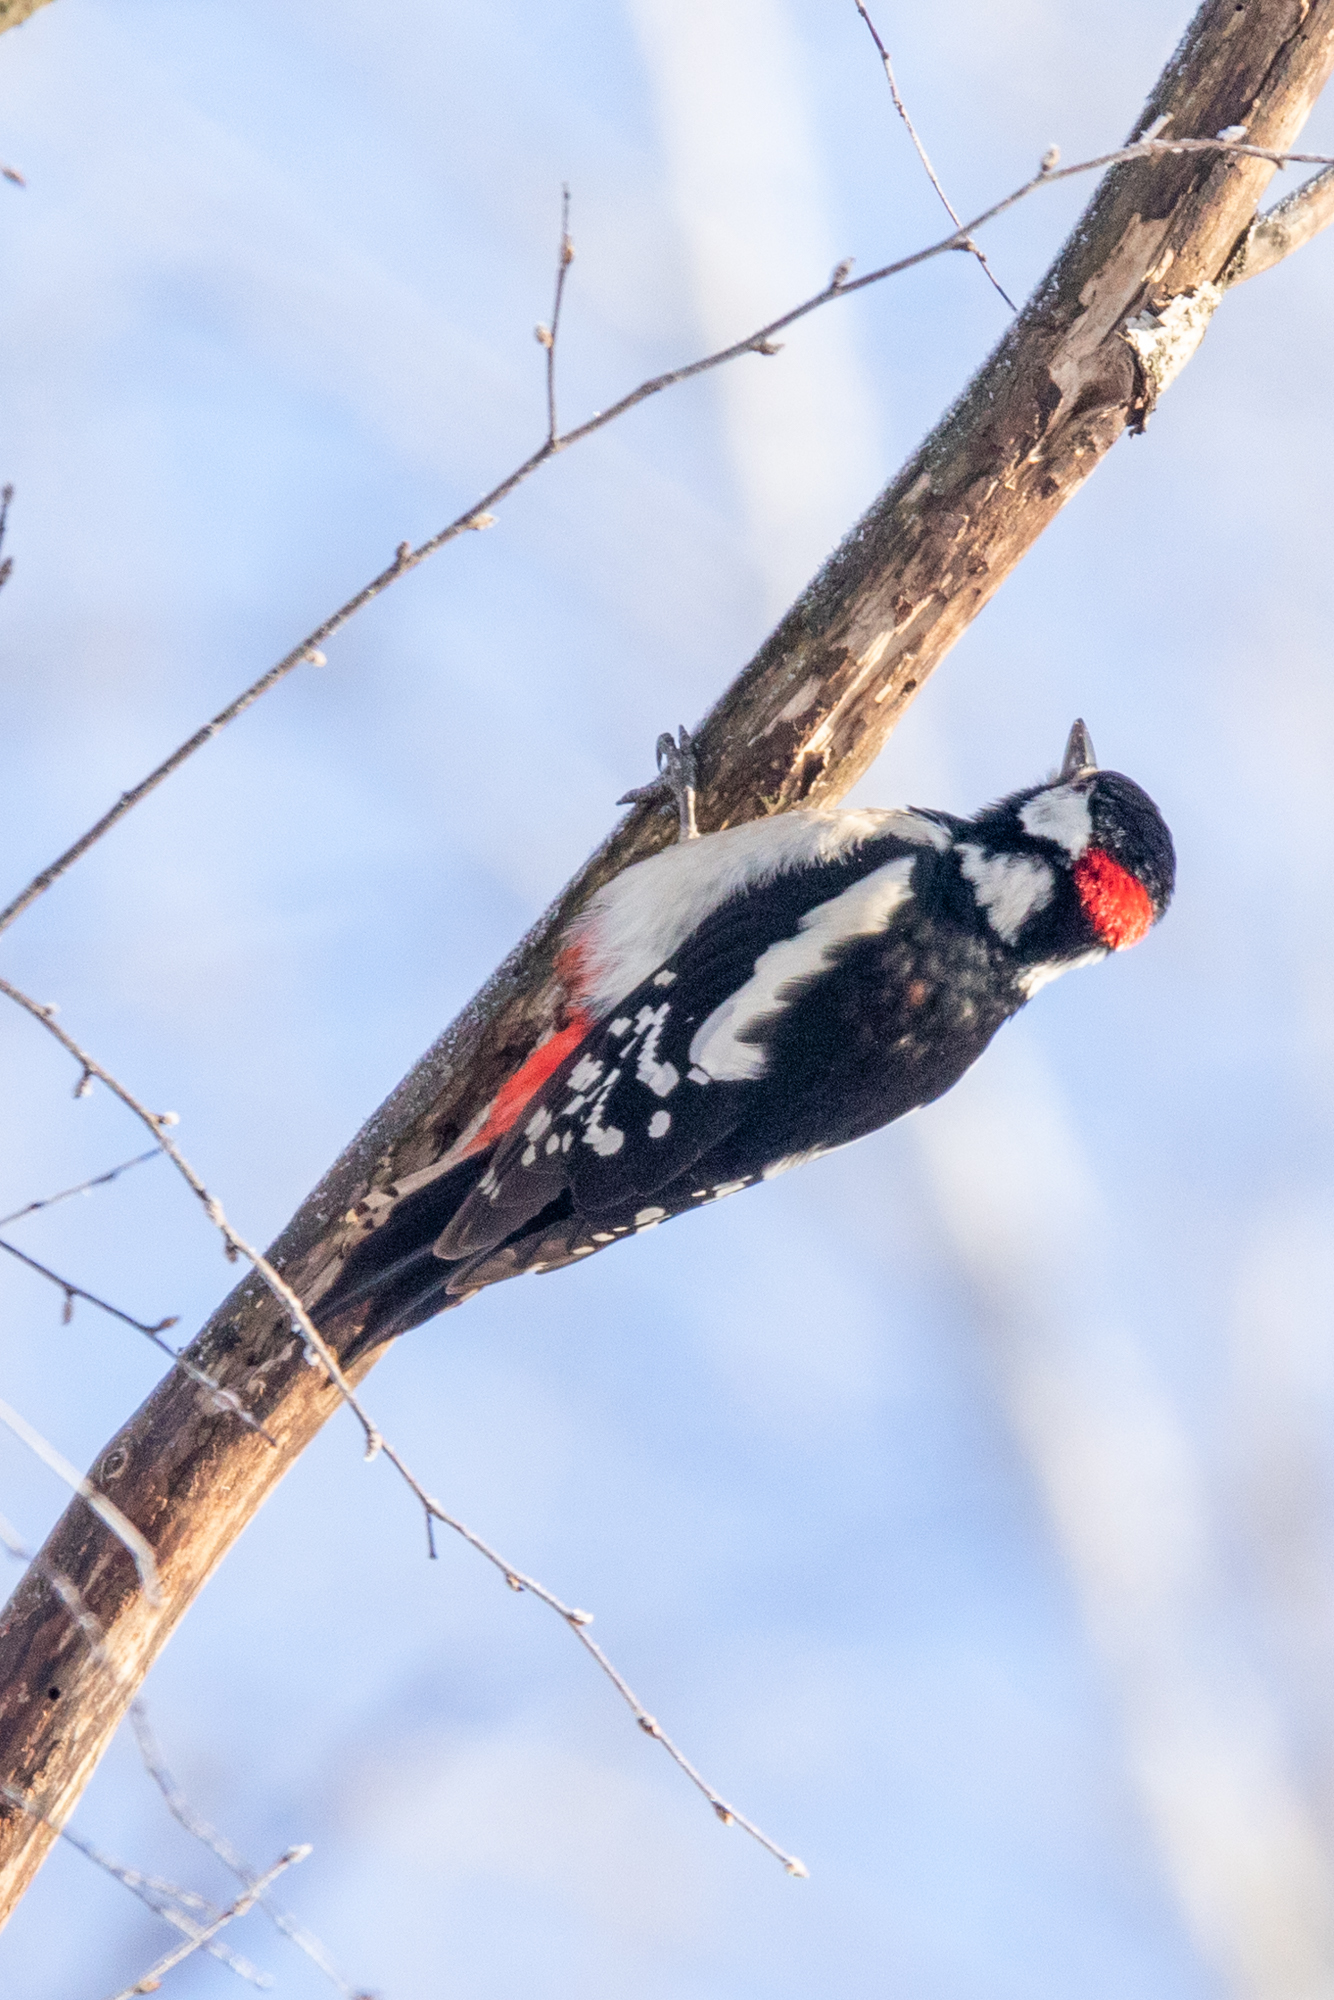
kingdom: Animalia
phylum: Chordata
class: Aves
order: Piciformes
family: Picidae
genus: Dendrocopos
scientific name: Dendrocopos major
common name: Great spotted woodpecker
